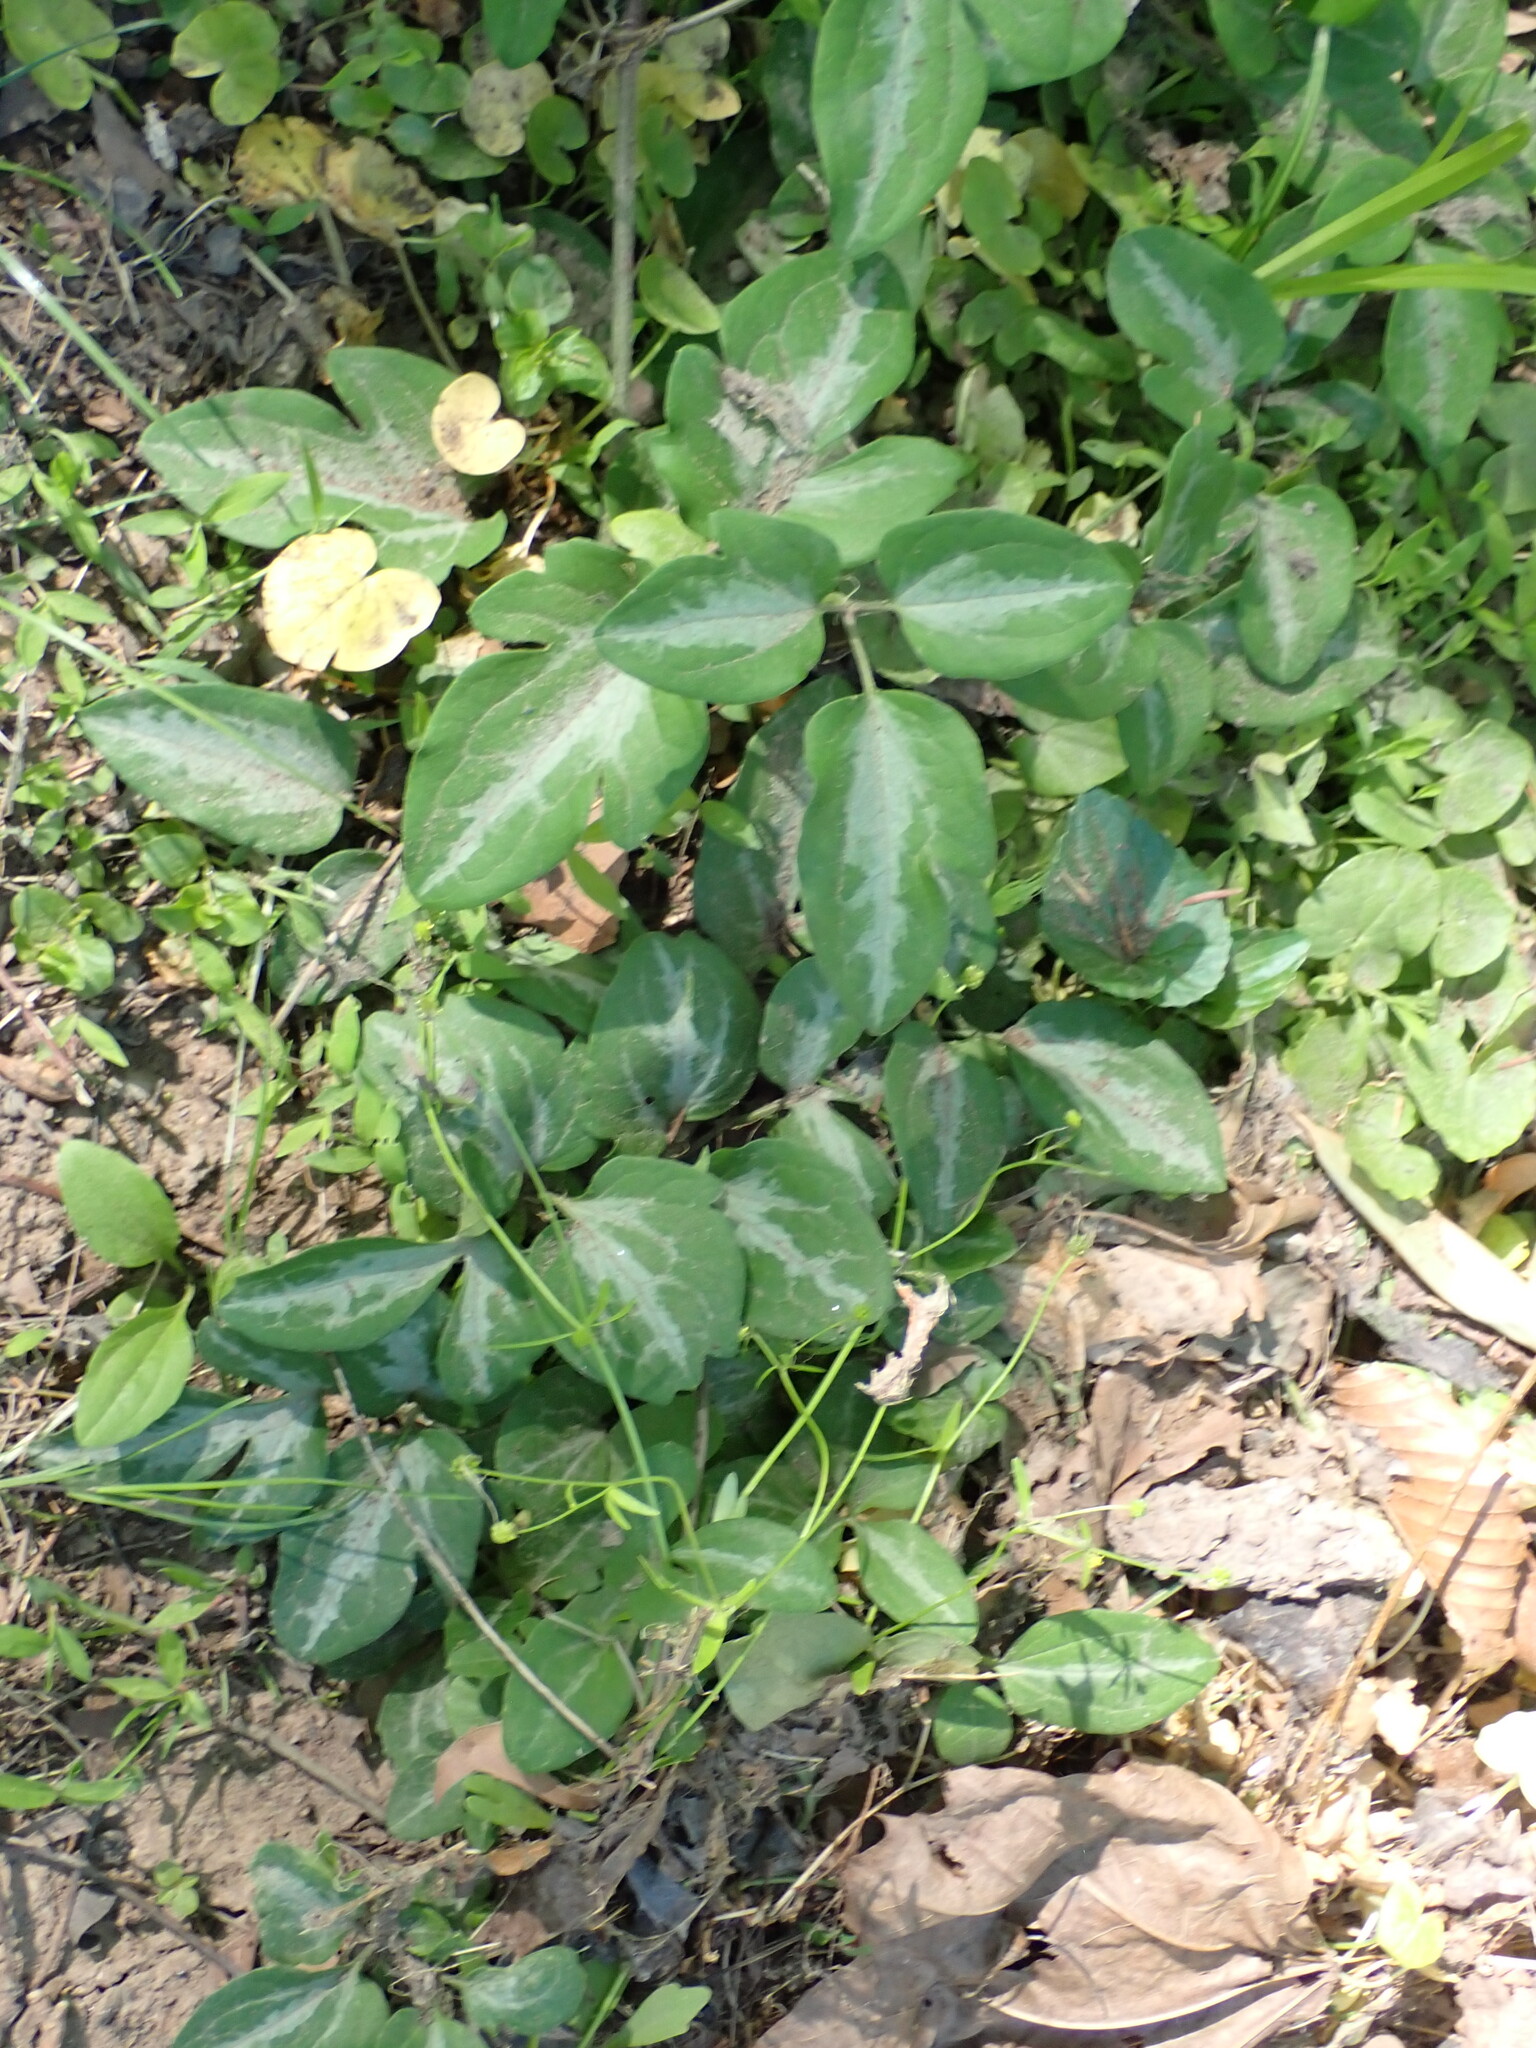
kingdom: Plantae
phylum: Tracheophyta
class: Magnoliopsida
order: Ranunculales
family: Ranunculaceae
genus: Clematis
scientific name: Clematis terniflora
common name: Sweet autumn clematis
